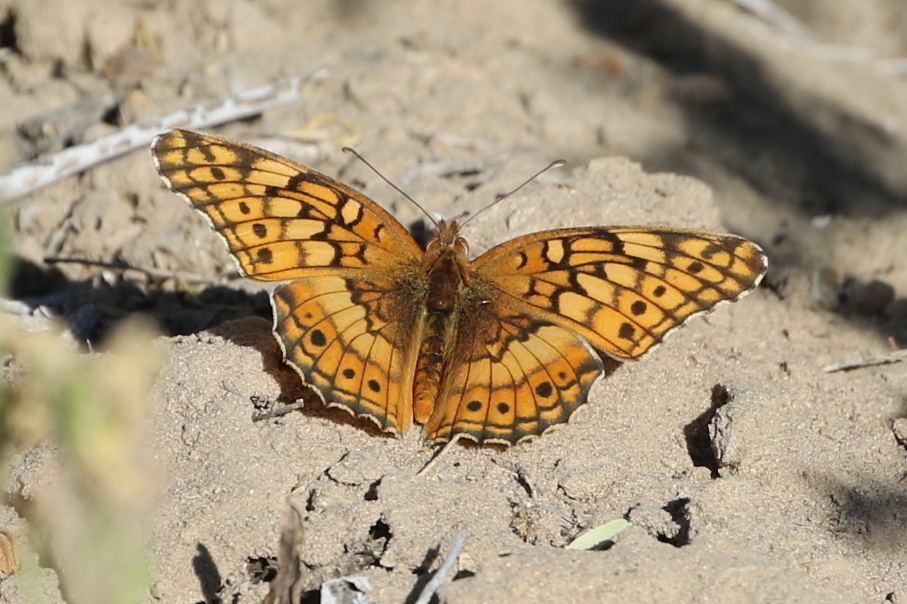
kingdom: Animalia
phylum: Arthropoda
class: Insecta
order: Lepidoptera
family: Nymphalidae
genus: Euptoieta
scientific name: Euptoieta claudia
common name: Variegated fritillary
